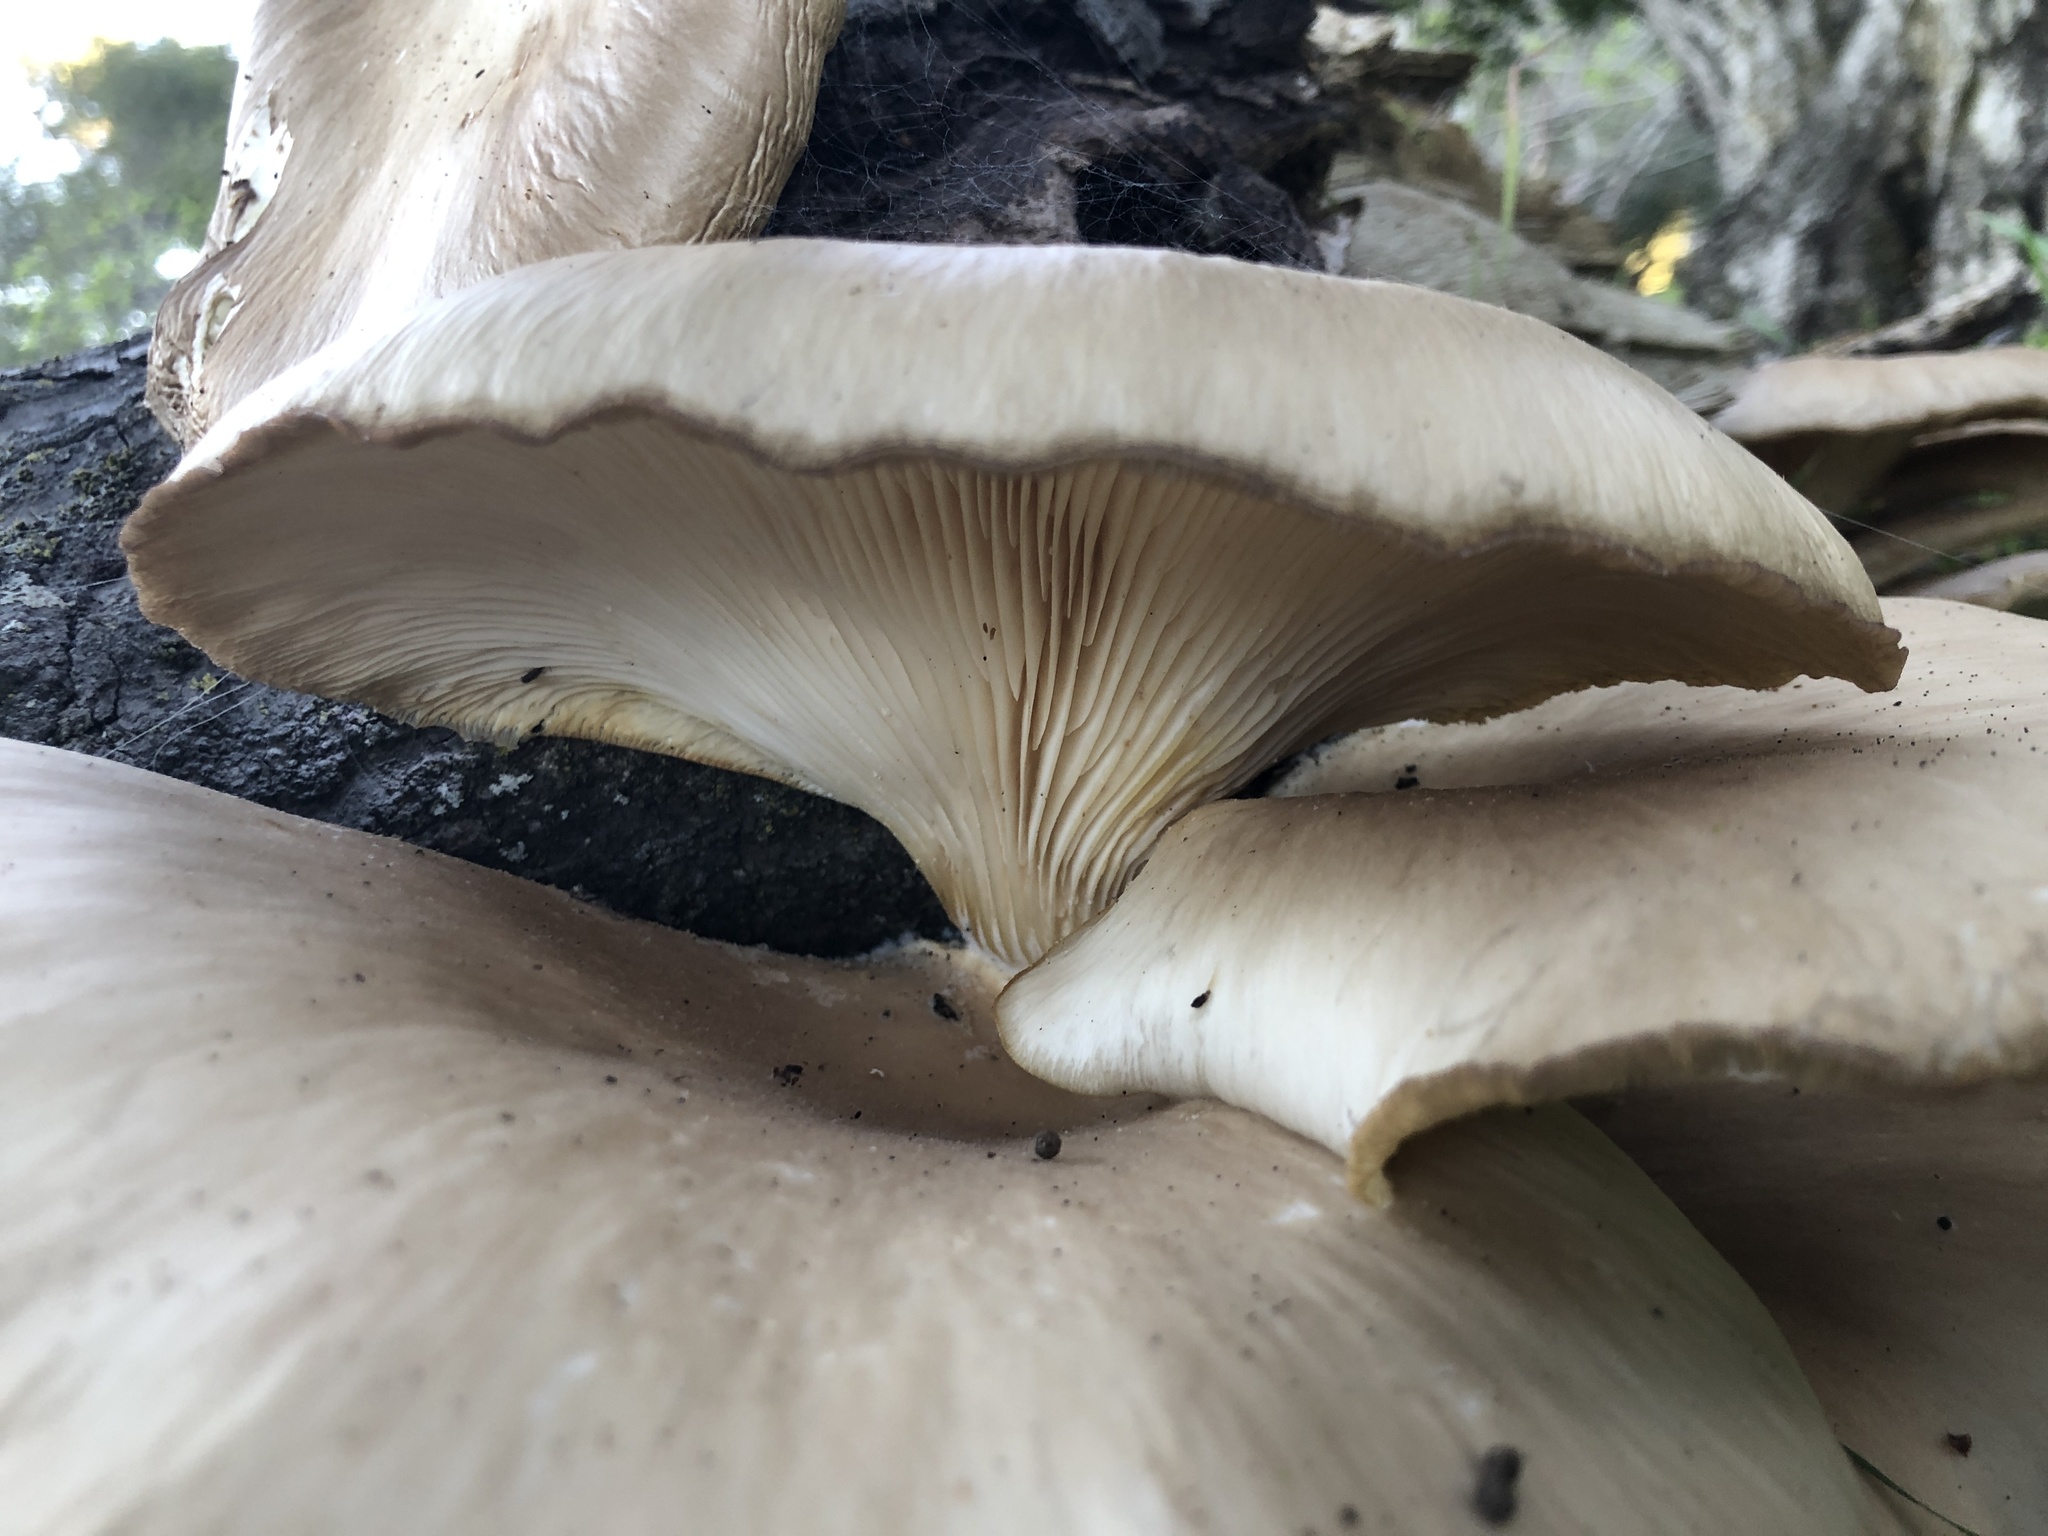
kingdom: Fungi
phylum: Basidiomycota
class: Agaricomycetes
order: Agaricales
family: Pleurotaceae
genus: Pleurotus
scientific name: Pleurotus ostreatus
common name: Oyster mushroom
